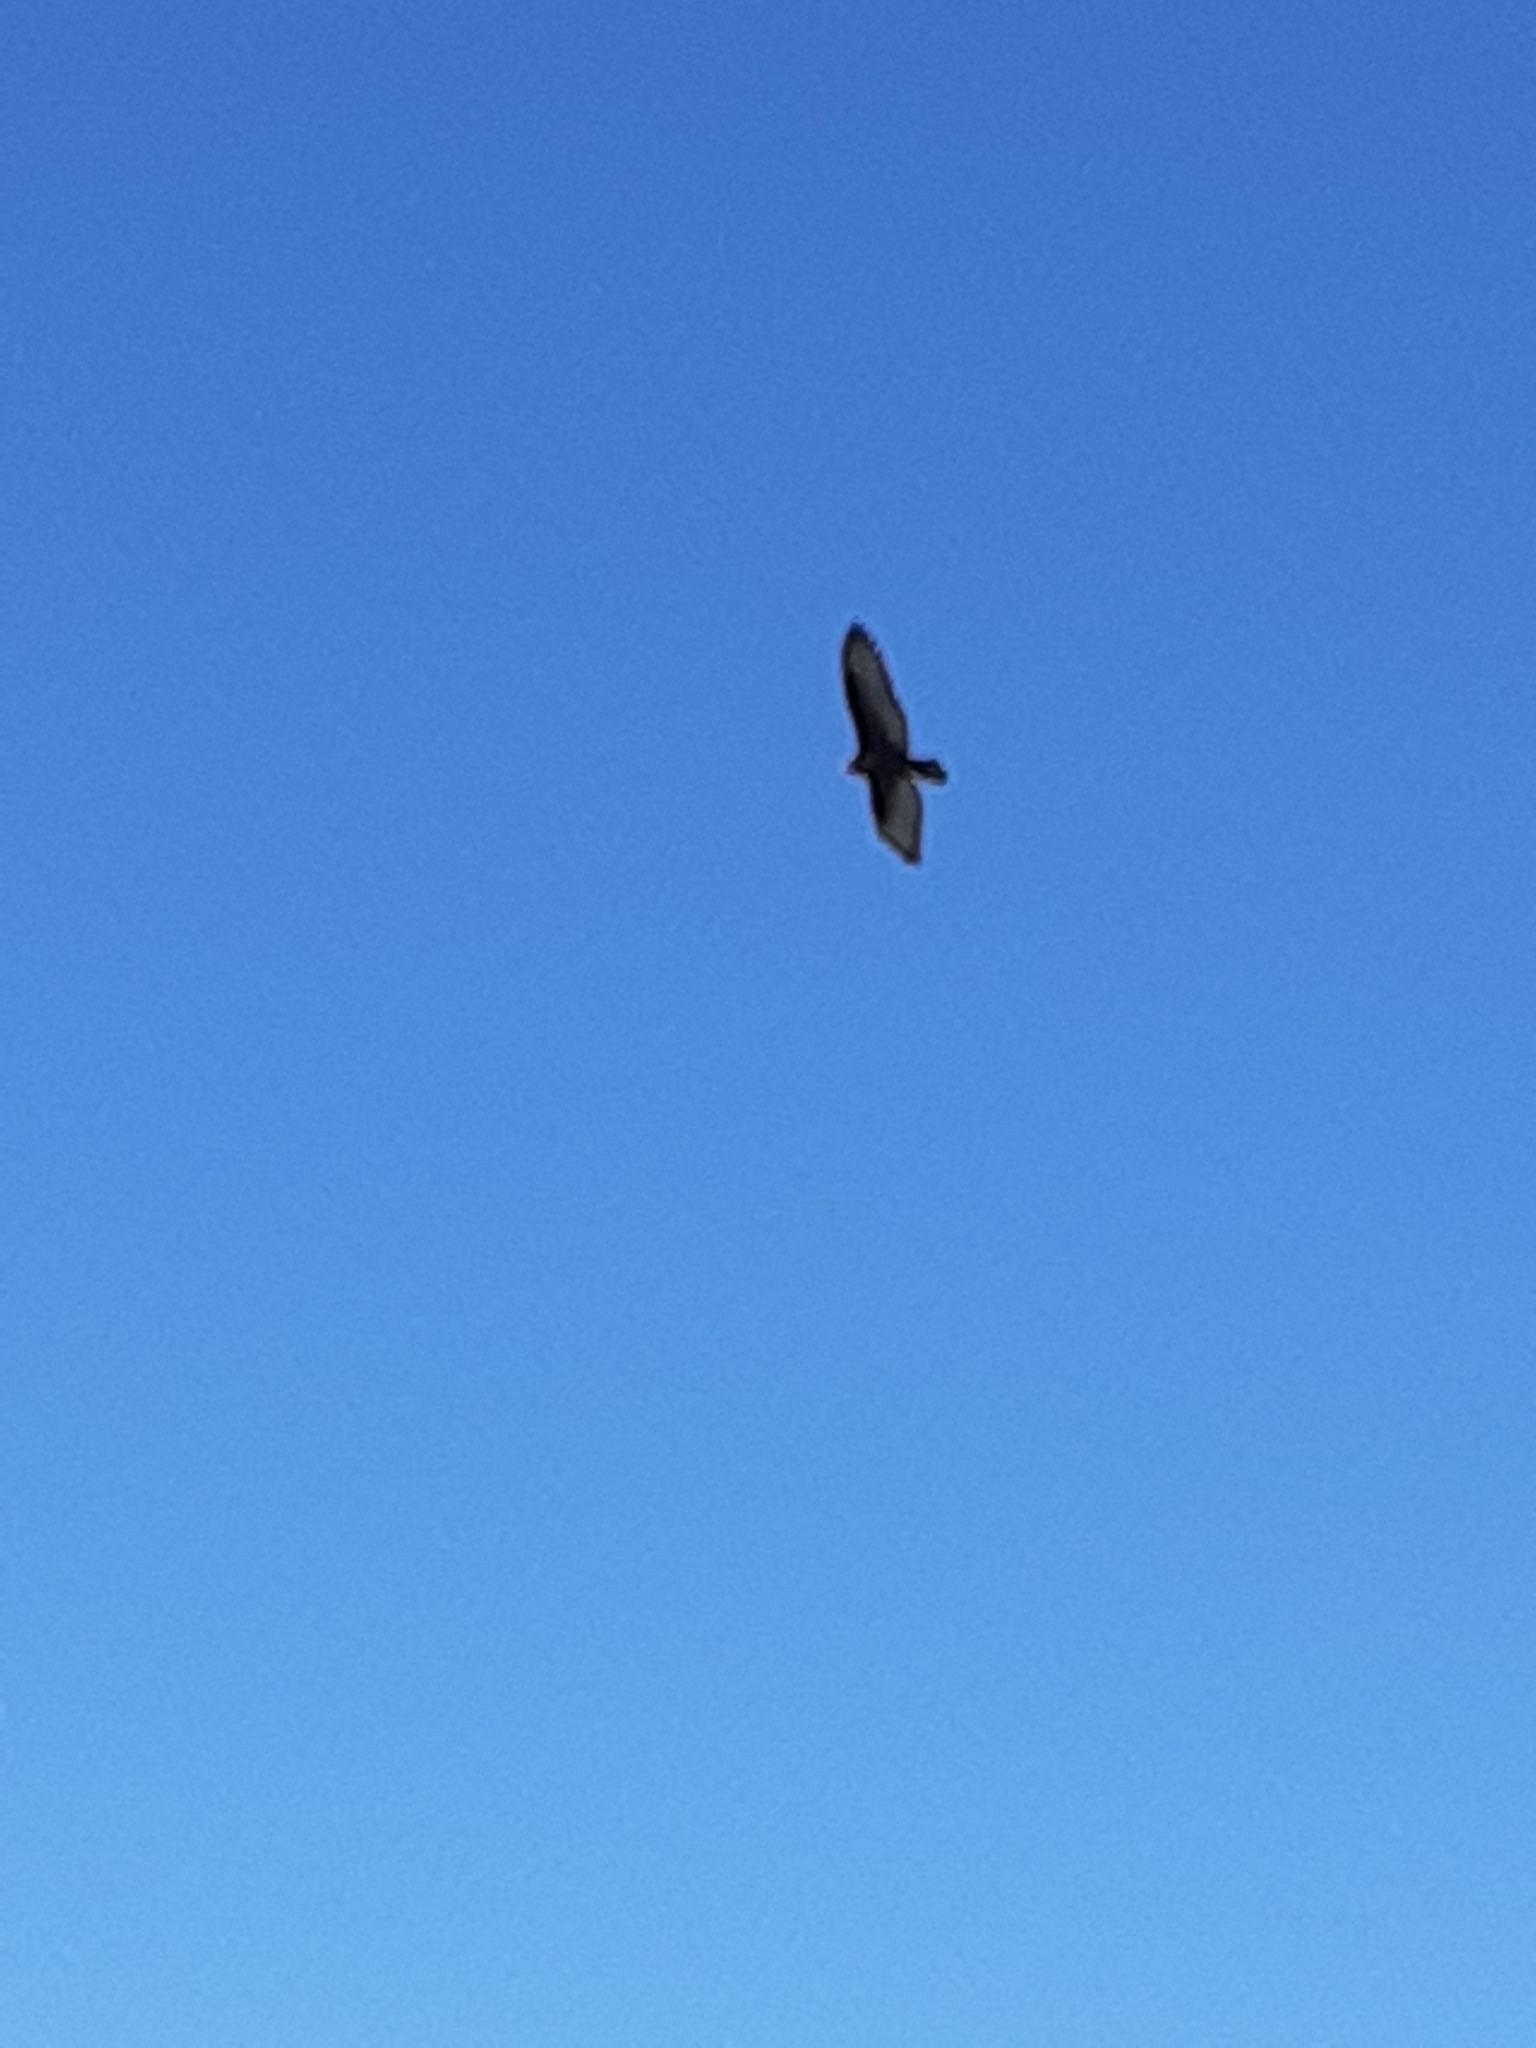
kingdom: Animalia
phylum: Chordata
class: Aves
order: Accipitriformes
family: Cathartidae
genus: Cathartes
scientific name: Cathartes aura
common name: Turkey vulture
